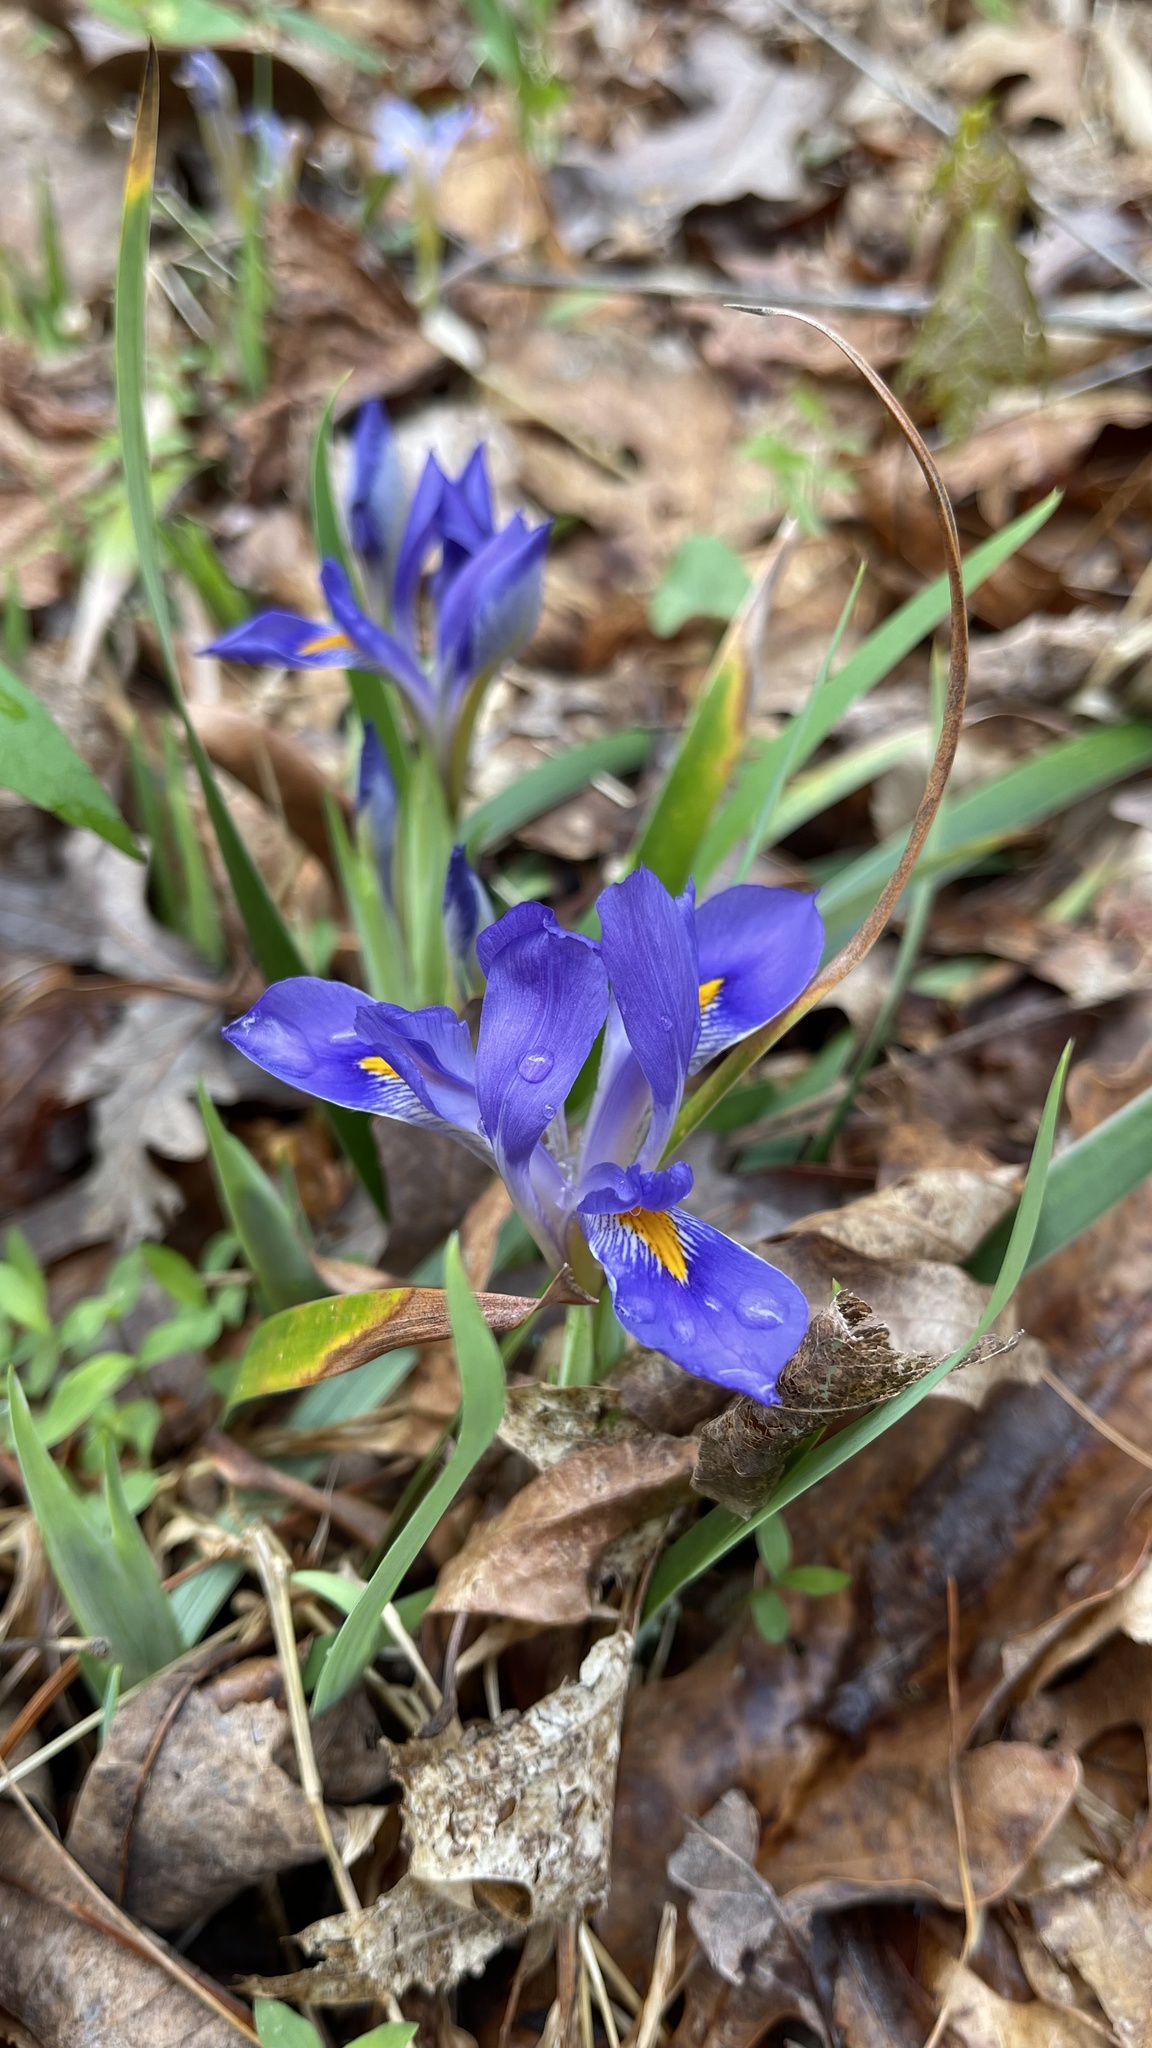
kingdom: Plantae
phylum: Tracheophyta
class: Liliopsida
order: Asparagales
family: Iridaceae
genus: Iris
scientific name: Iris verna
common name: Dwarf iris
